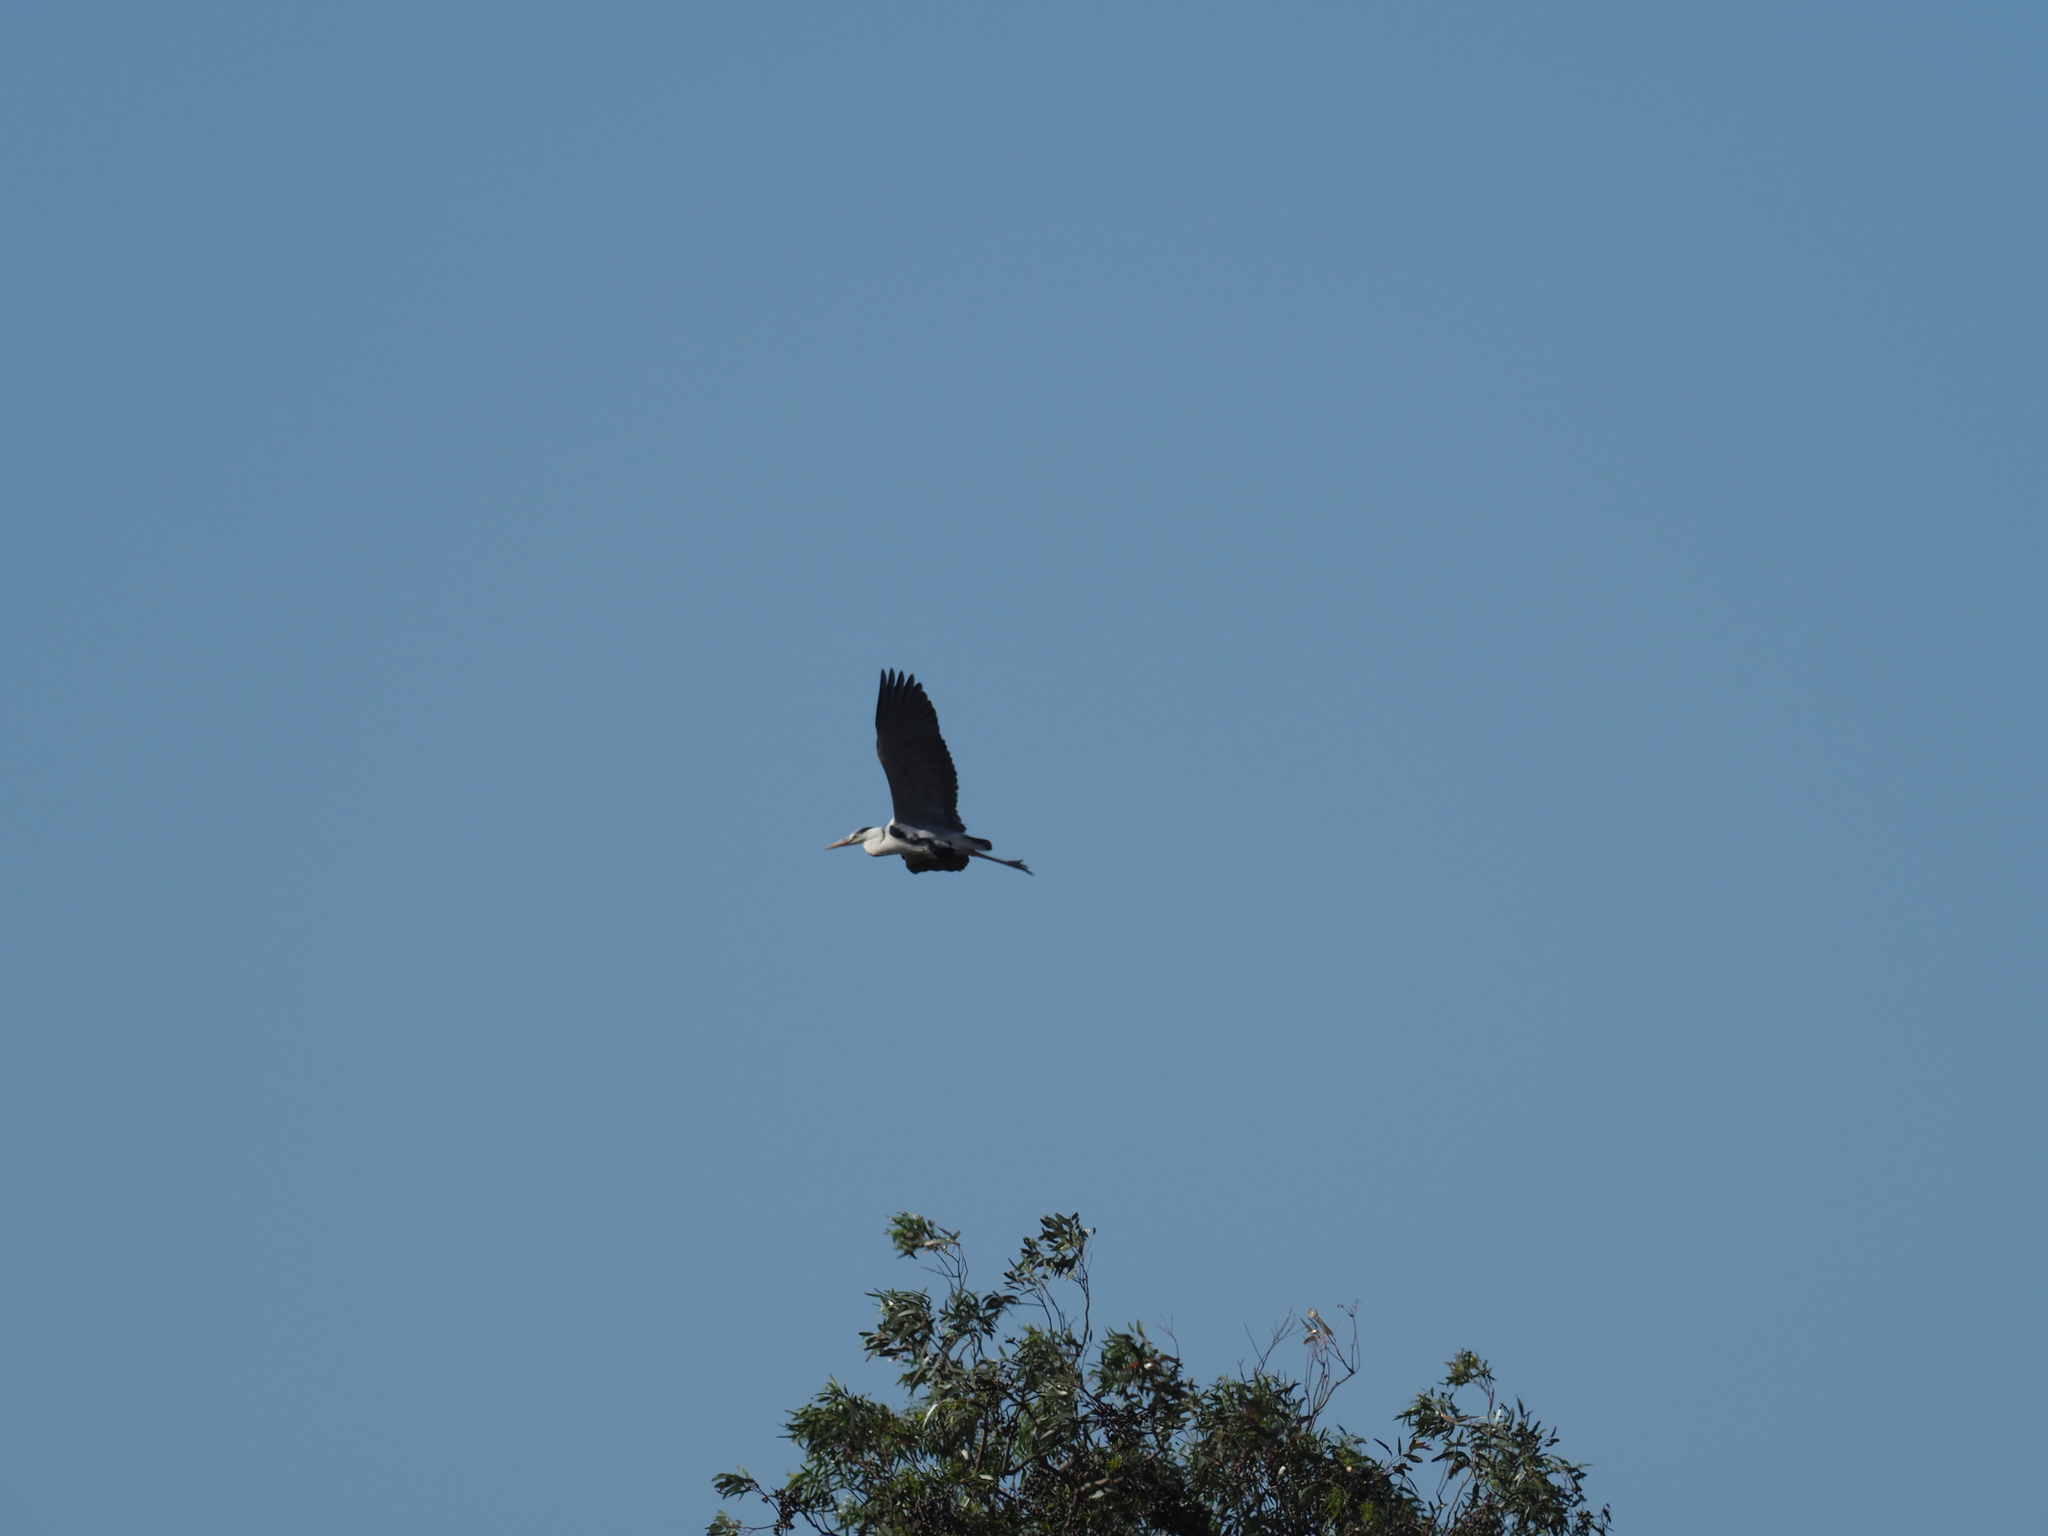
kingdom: Animalia
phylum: Chordata
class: Aves
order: Pelecaniformes
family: Ardeidae
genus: Ardea
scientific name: Ardea cinerea
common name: Grey heron
